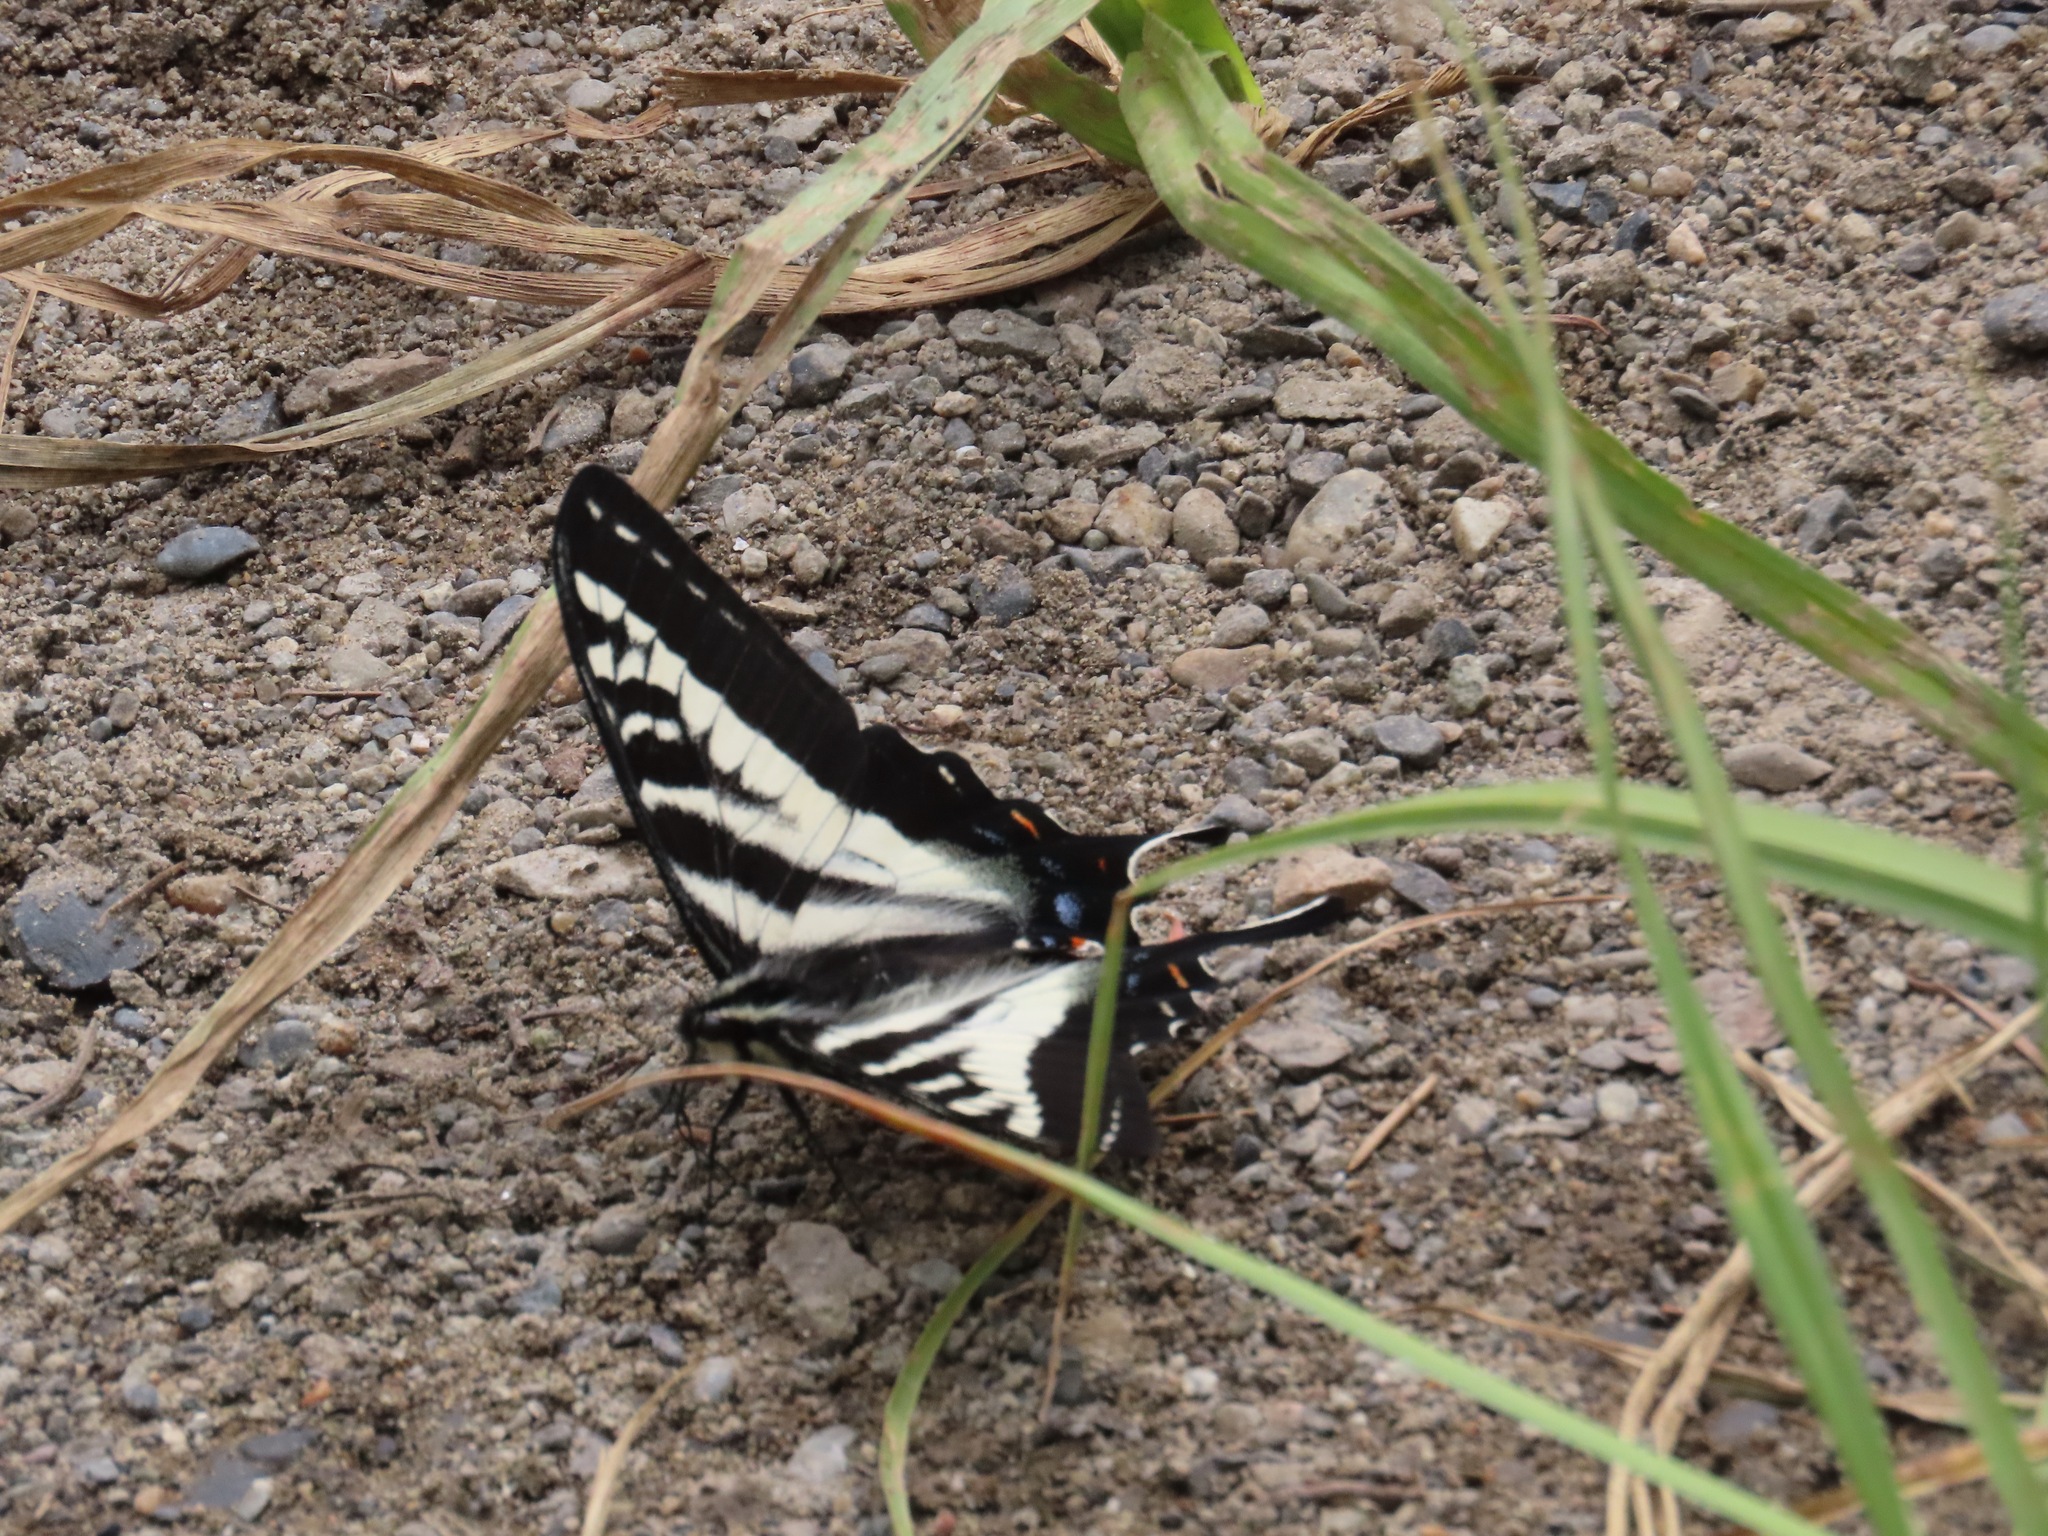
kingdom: Animalia
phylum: Arthropoda
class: Insecta
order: Lepidoptera
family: Papilionidae
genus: Papilio
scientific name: Papilio eurymedon
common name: Pale tiger swallowtail
